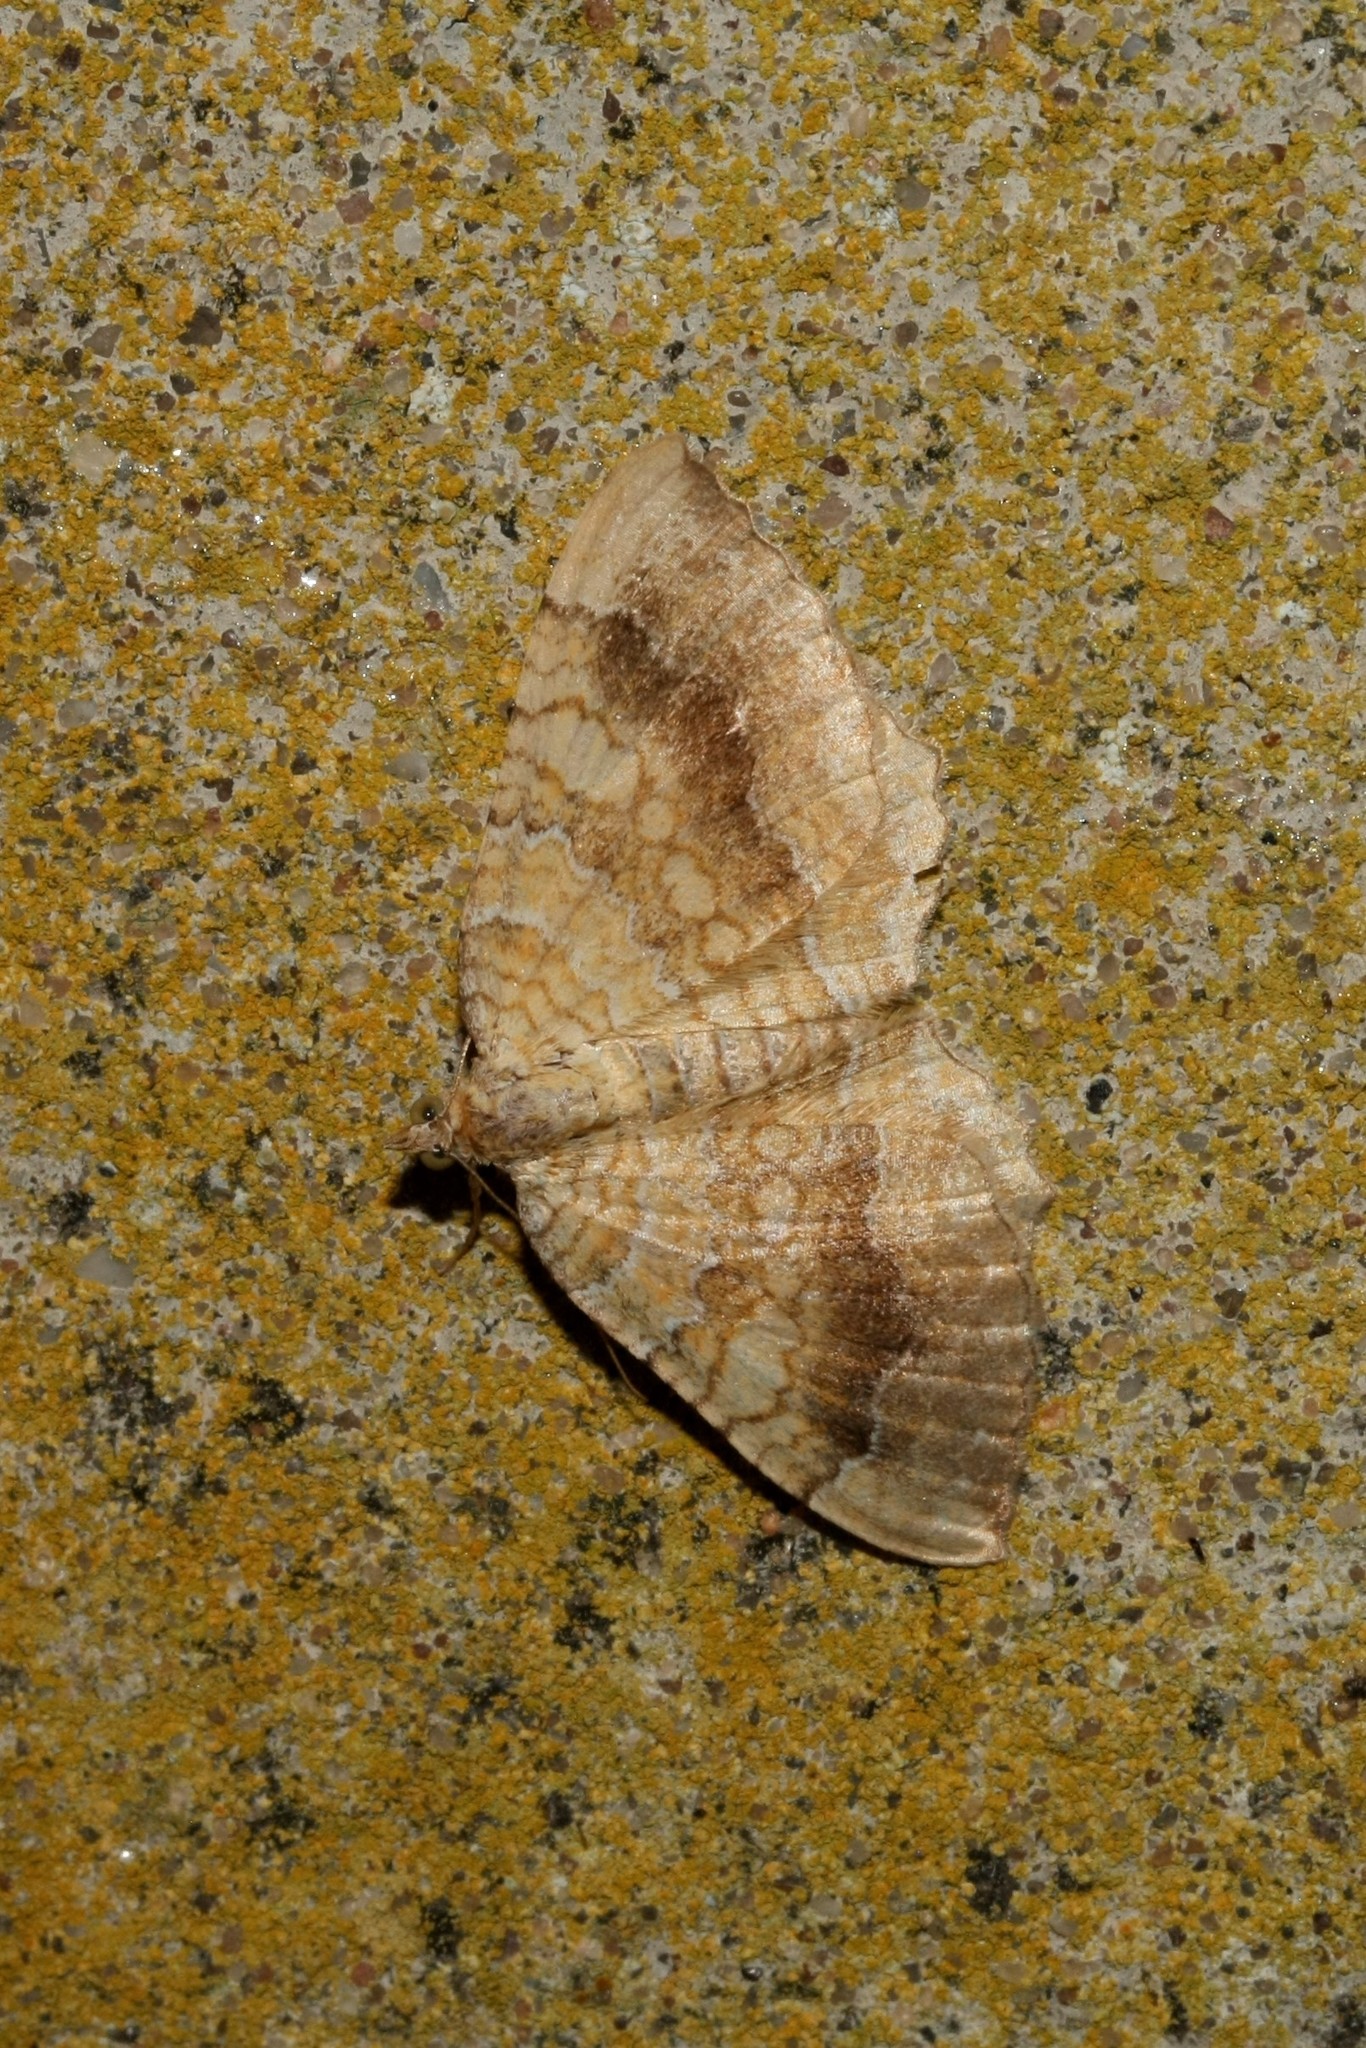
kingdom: Animalia
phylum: Arthropoda
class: Insecta
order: Lepidoptera
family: Geometridae
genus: Camptogramma
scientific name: Camptogramma bilineata
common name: Yellow shell
